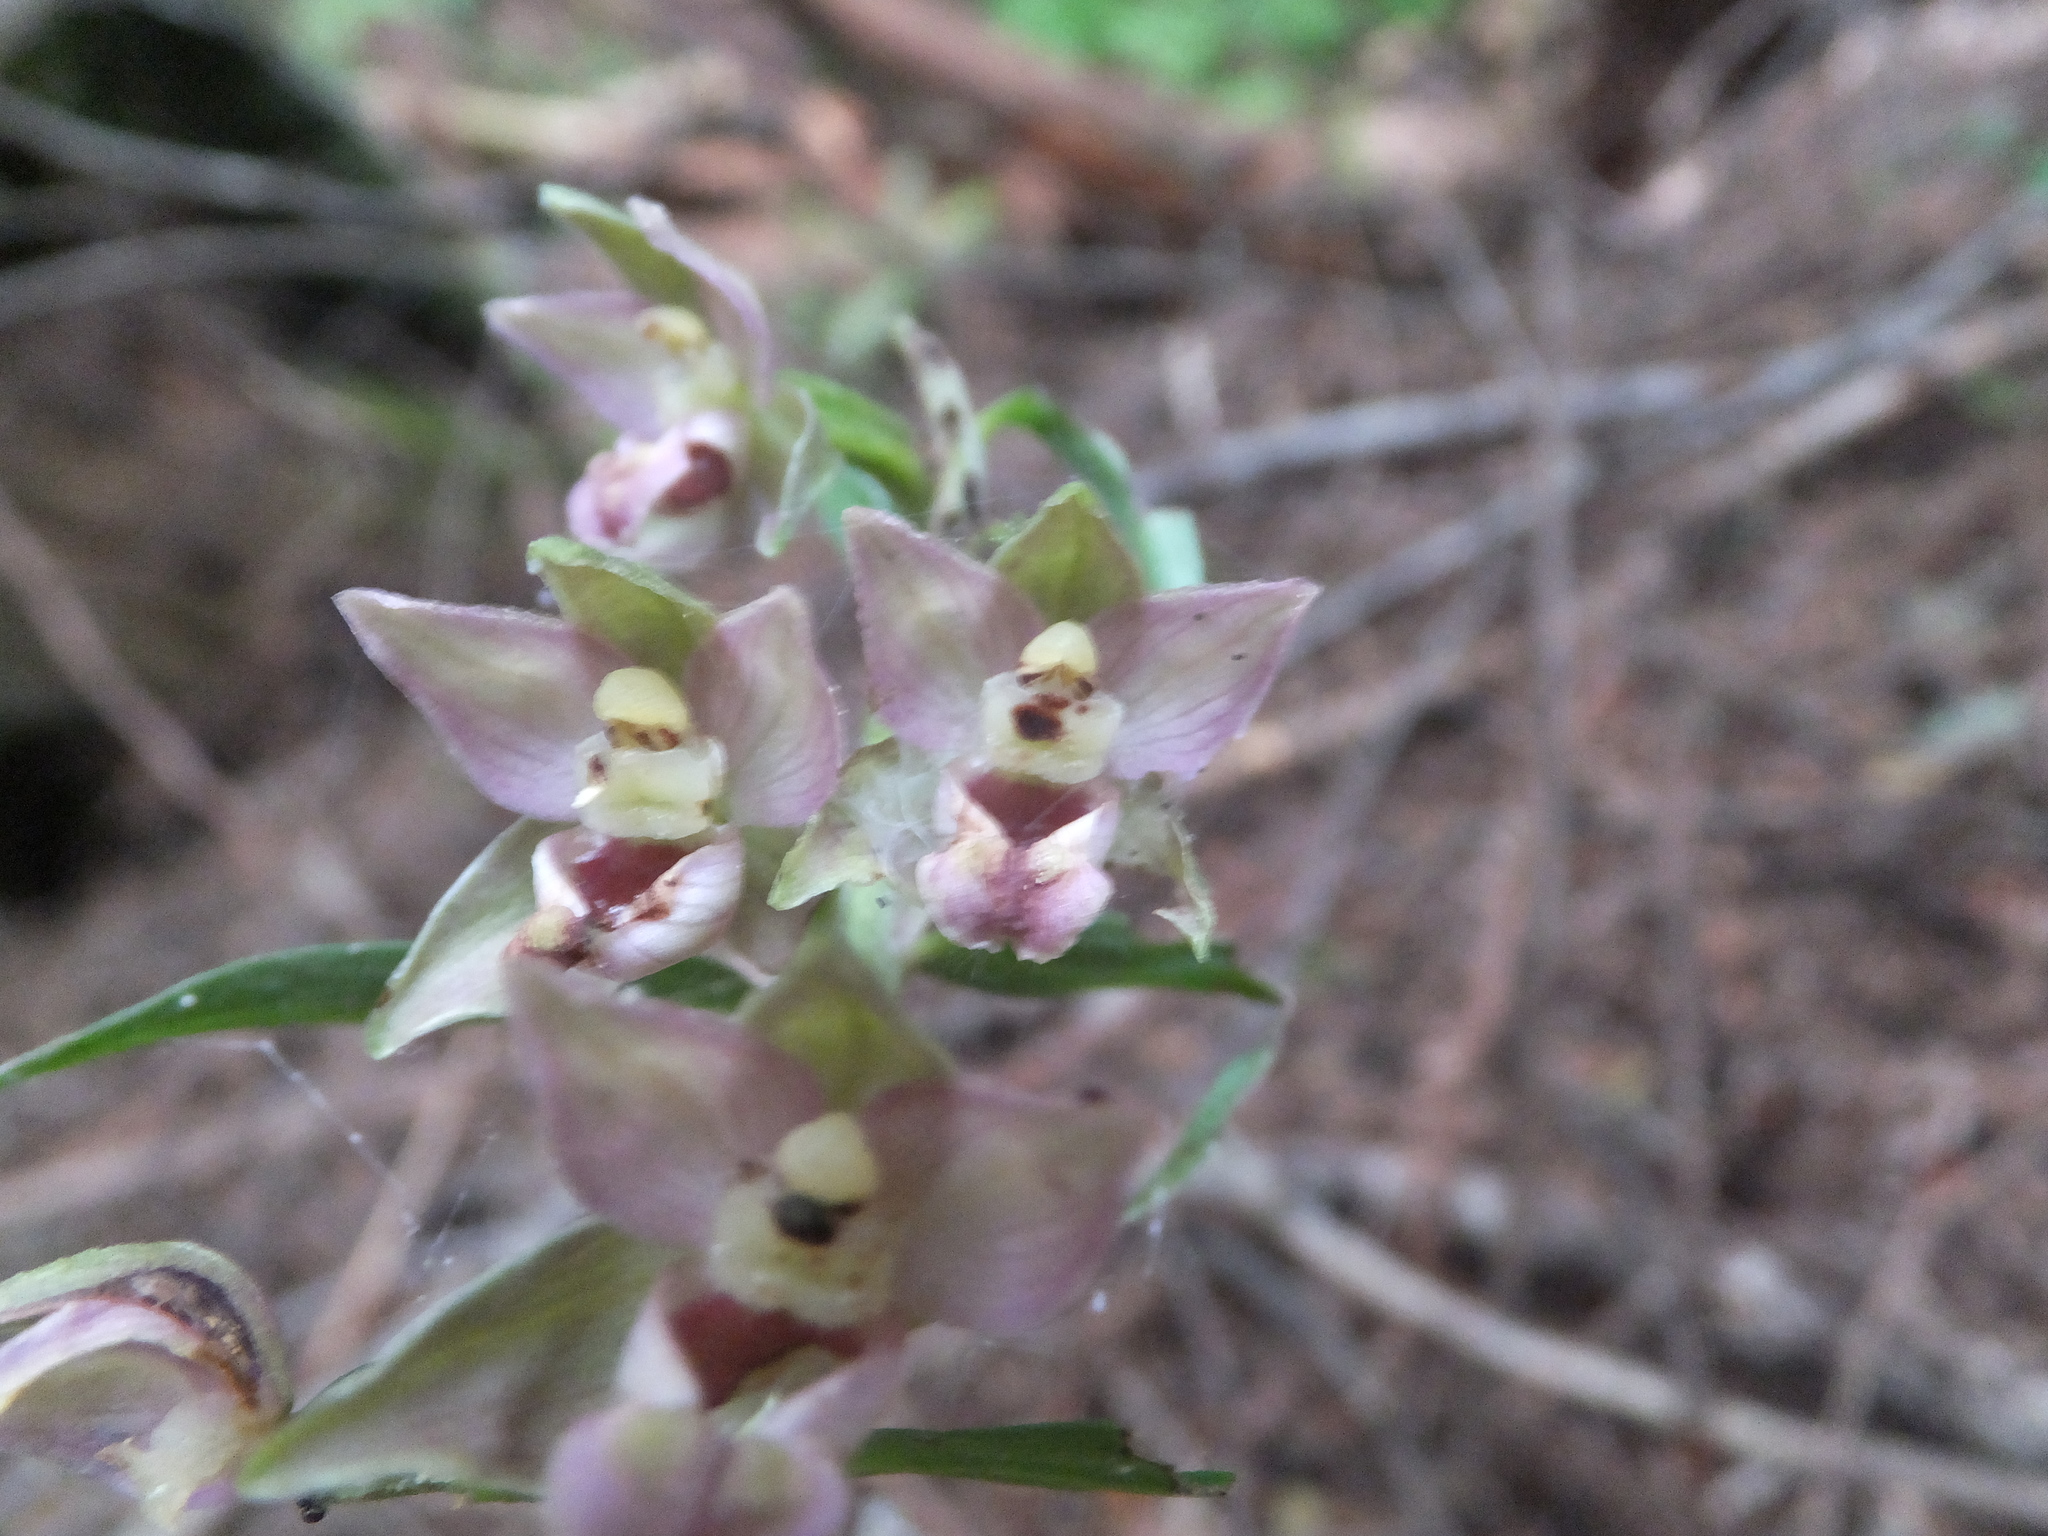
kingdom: Plantae
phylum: Tracheophyta
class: Liliopsida
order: Asparagales
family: Orchidaceae
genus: Epipactis
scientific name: Epipactis helleborine
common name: Broad-leaved helleborine
